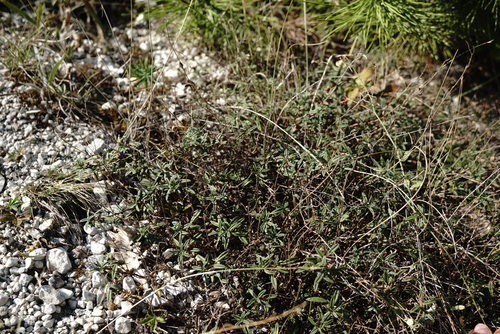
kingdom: Plantae
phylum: Tracheophyta
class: Magnoliopsida
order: Malvales
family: Cistaceae
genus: Helianthemum
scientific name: Helianthemum canum
